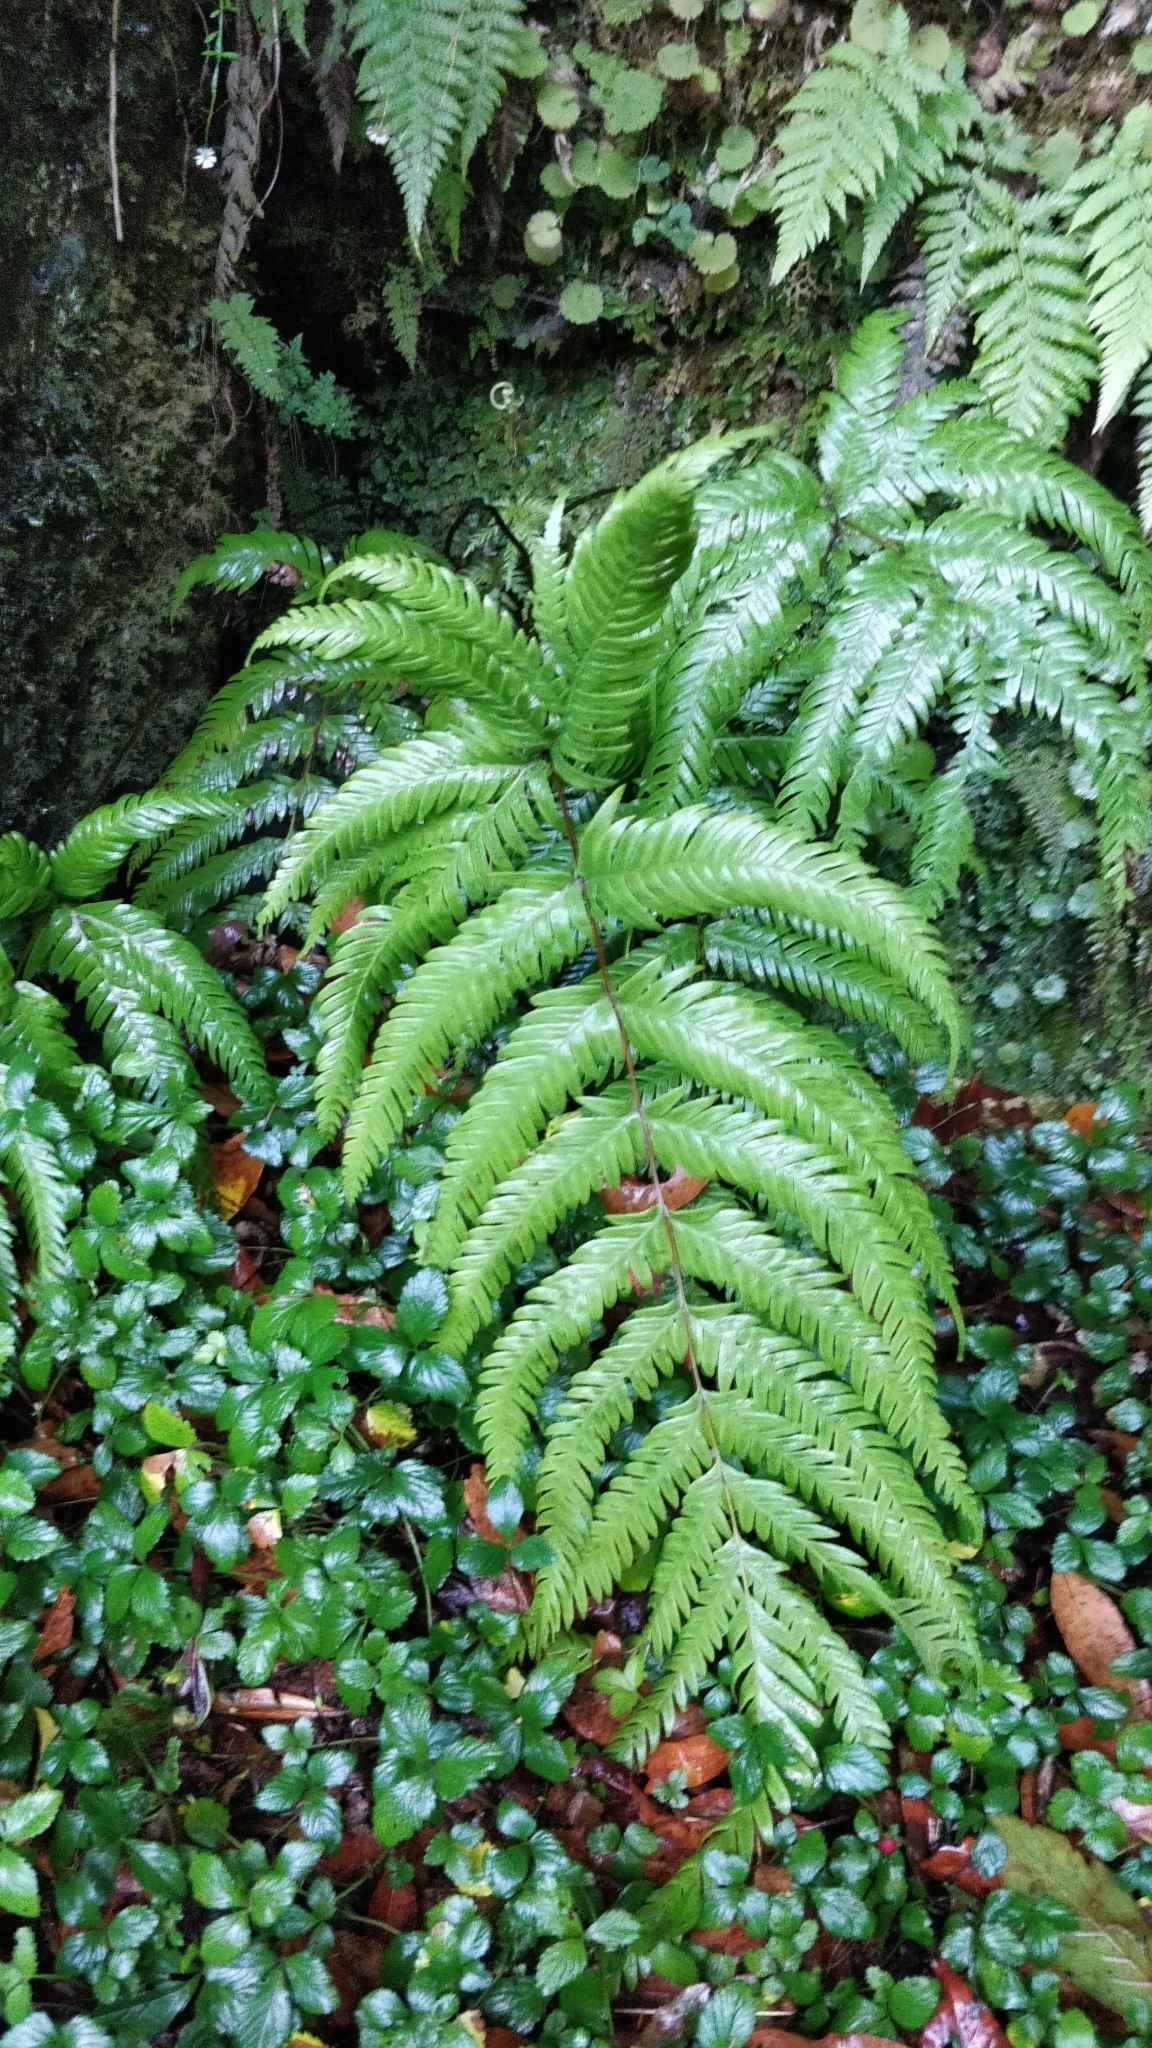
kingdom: Plantae
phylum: Tracheophyta
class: Polypodiopsida
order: Polypodiales
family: Blechnaceae
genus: Woodwardia
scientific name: Woodwardia radicans
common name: Rooting chainfern
